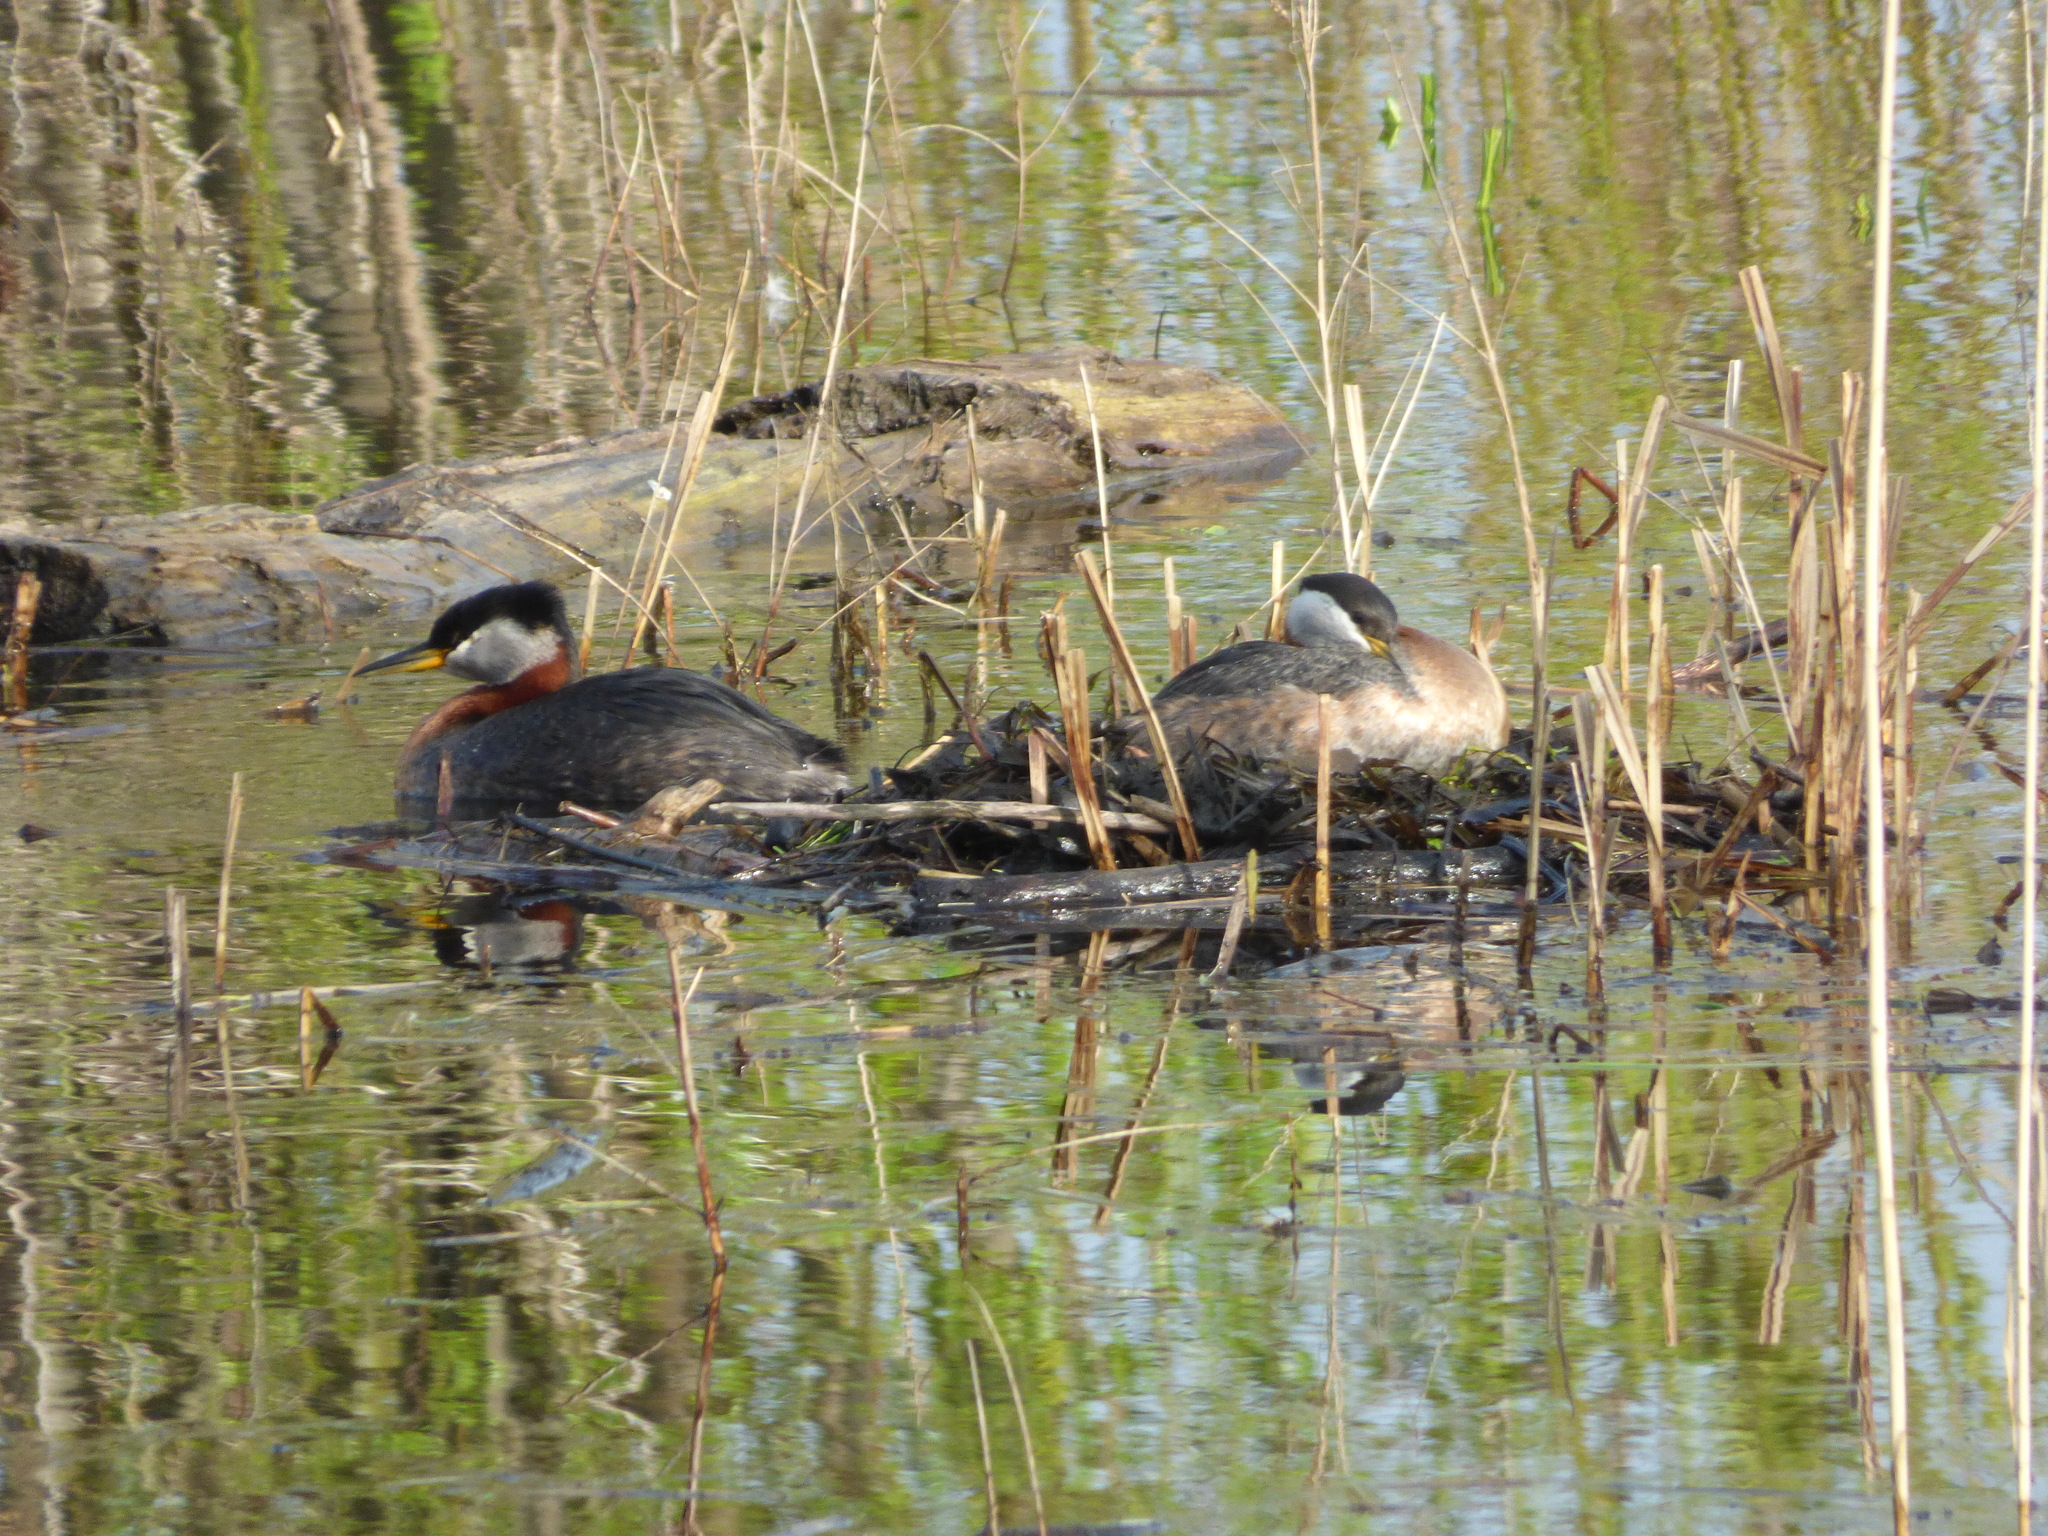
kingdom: Animalia
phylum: Chordata
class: Aves
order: Podicipediformes
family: Podicipedidae
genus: Podiceps
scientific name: Podiceps grisegena
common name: Red-necked grebe
